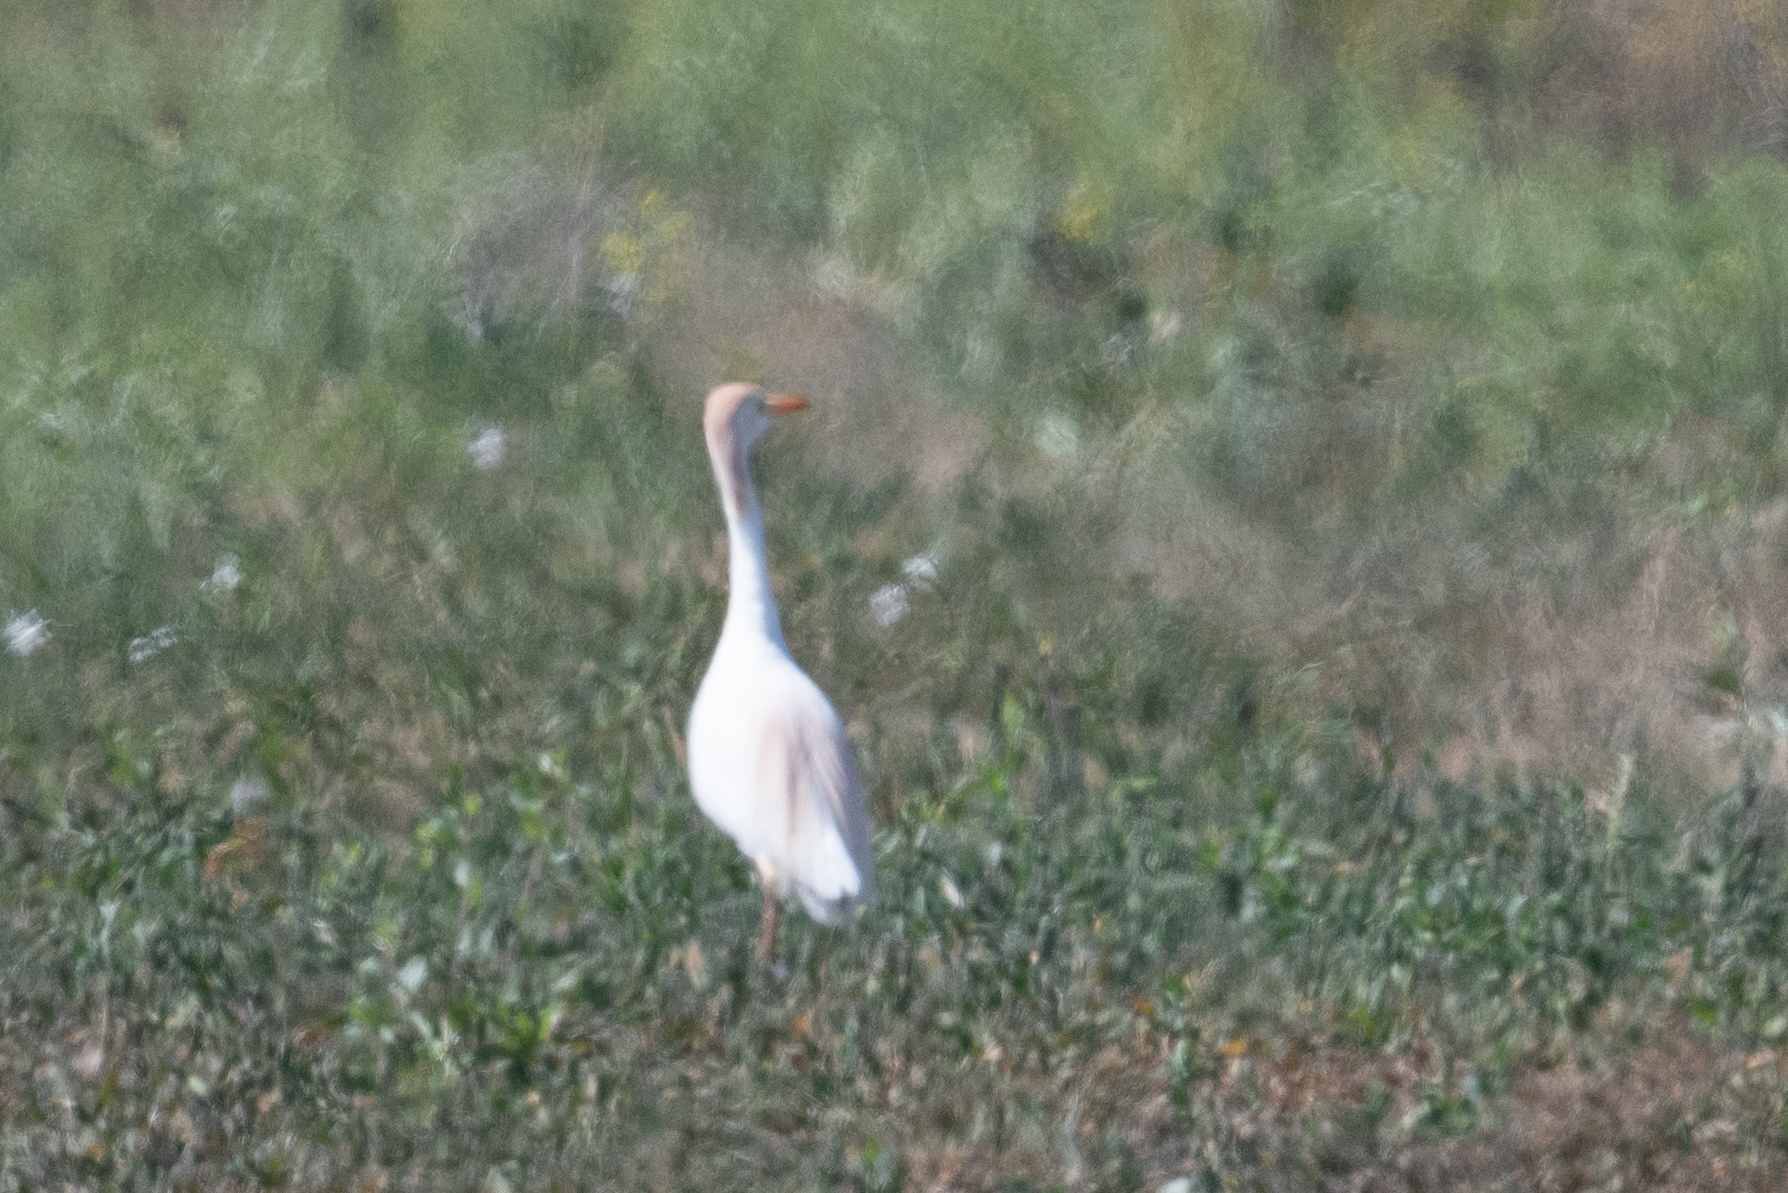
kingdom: Animalia
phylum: Chordata
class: Aves
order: Pelecaniformes
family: Ardeidae
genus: Bubulcus
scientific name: Bubulcus ibis
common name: Cattle egret
